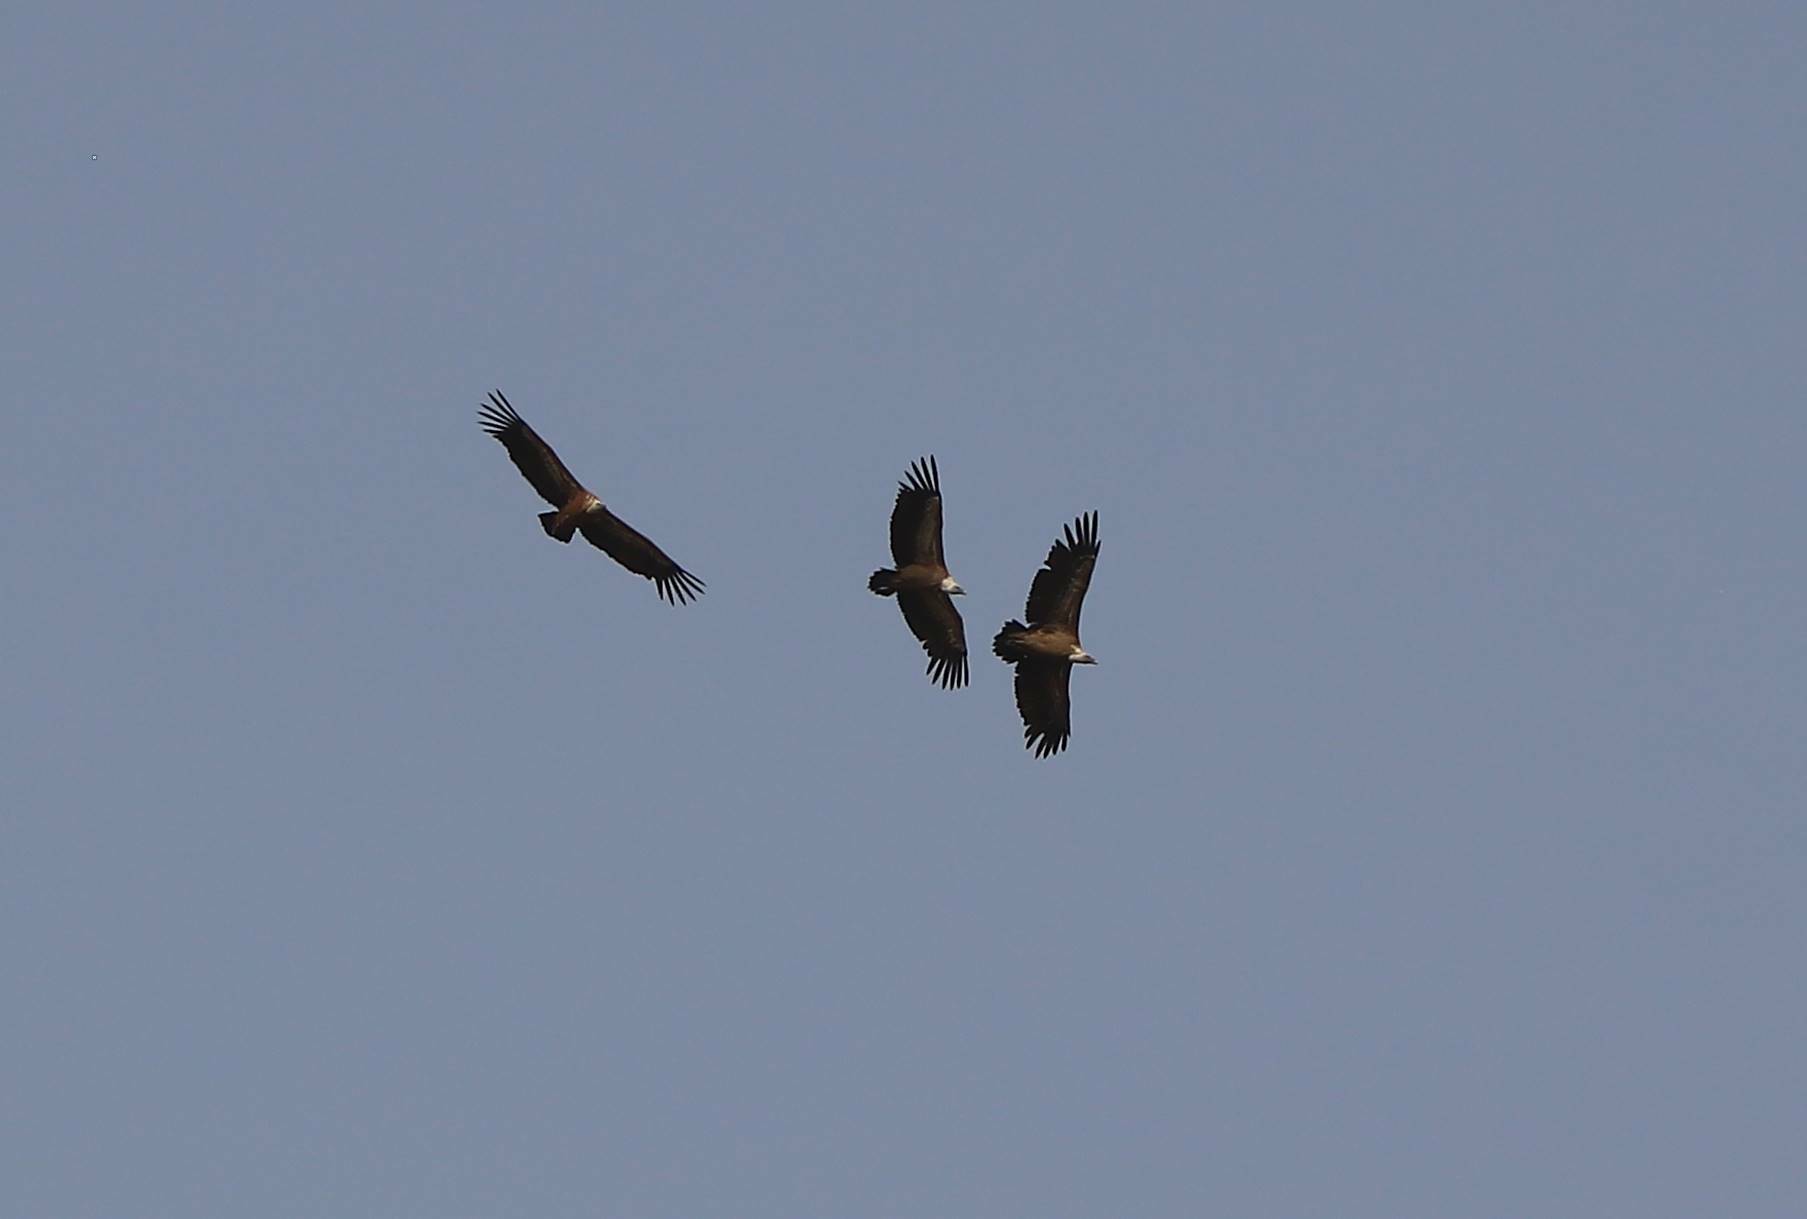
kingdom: Animalia
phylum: Chordata
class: Aves
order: Accipitriformes
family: Accipitridae
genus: Gyps
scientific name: Gyps fulvus
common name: Griffon vulture
